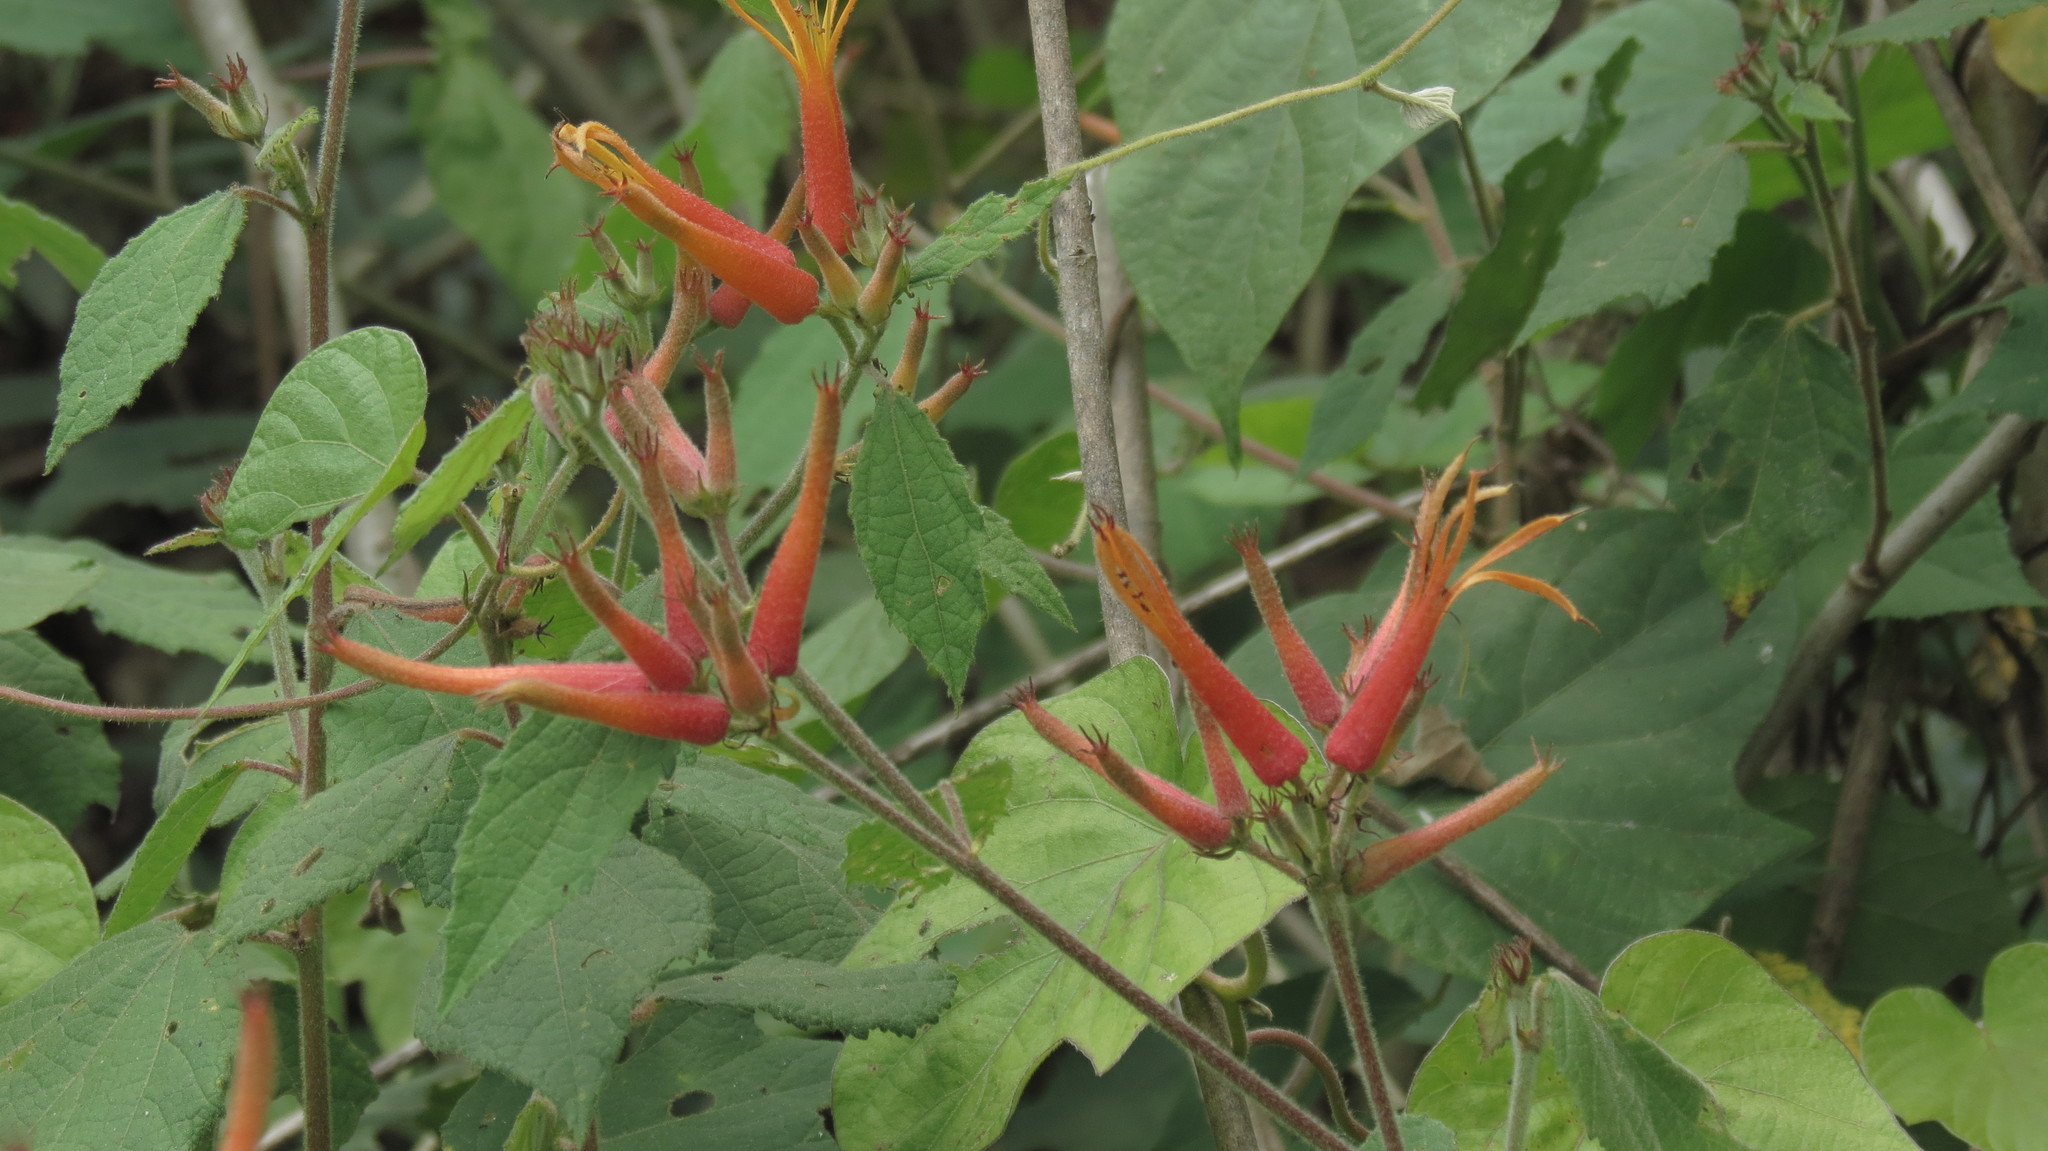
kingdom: Plantae
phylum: Tracheophyta
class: Magnoliopsida
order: Malvales
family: Malvaceae
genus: Triumfetta
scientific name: Triumfetta speciosa
